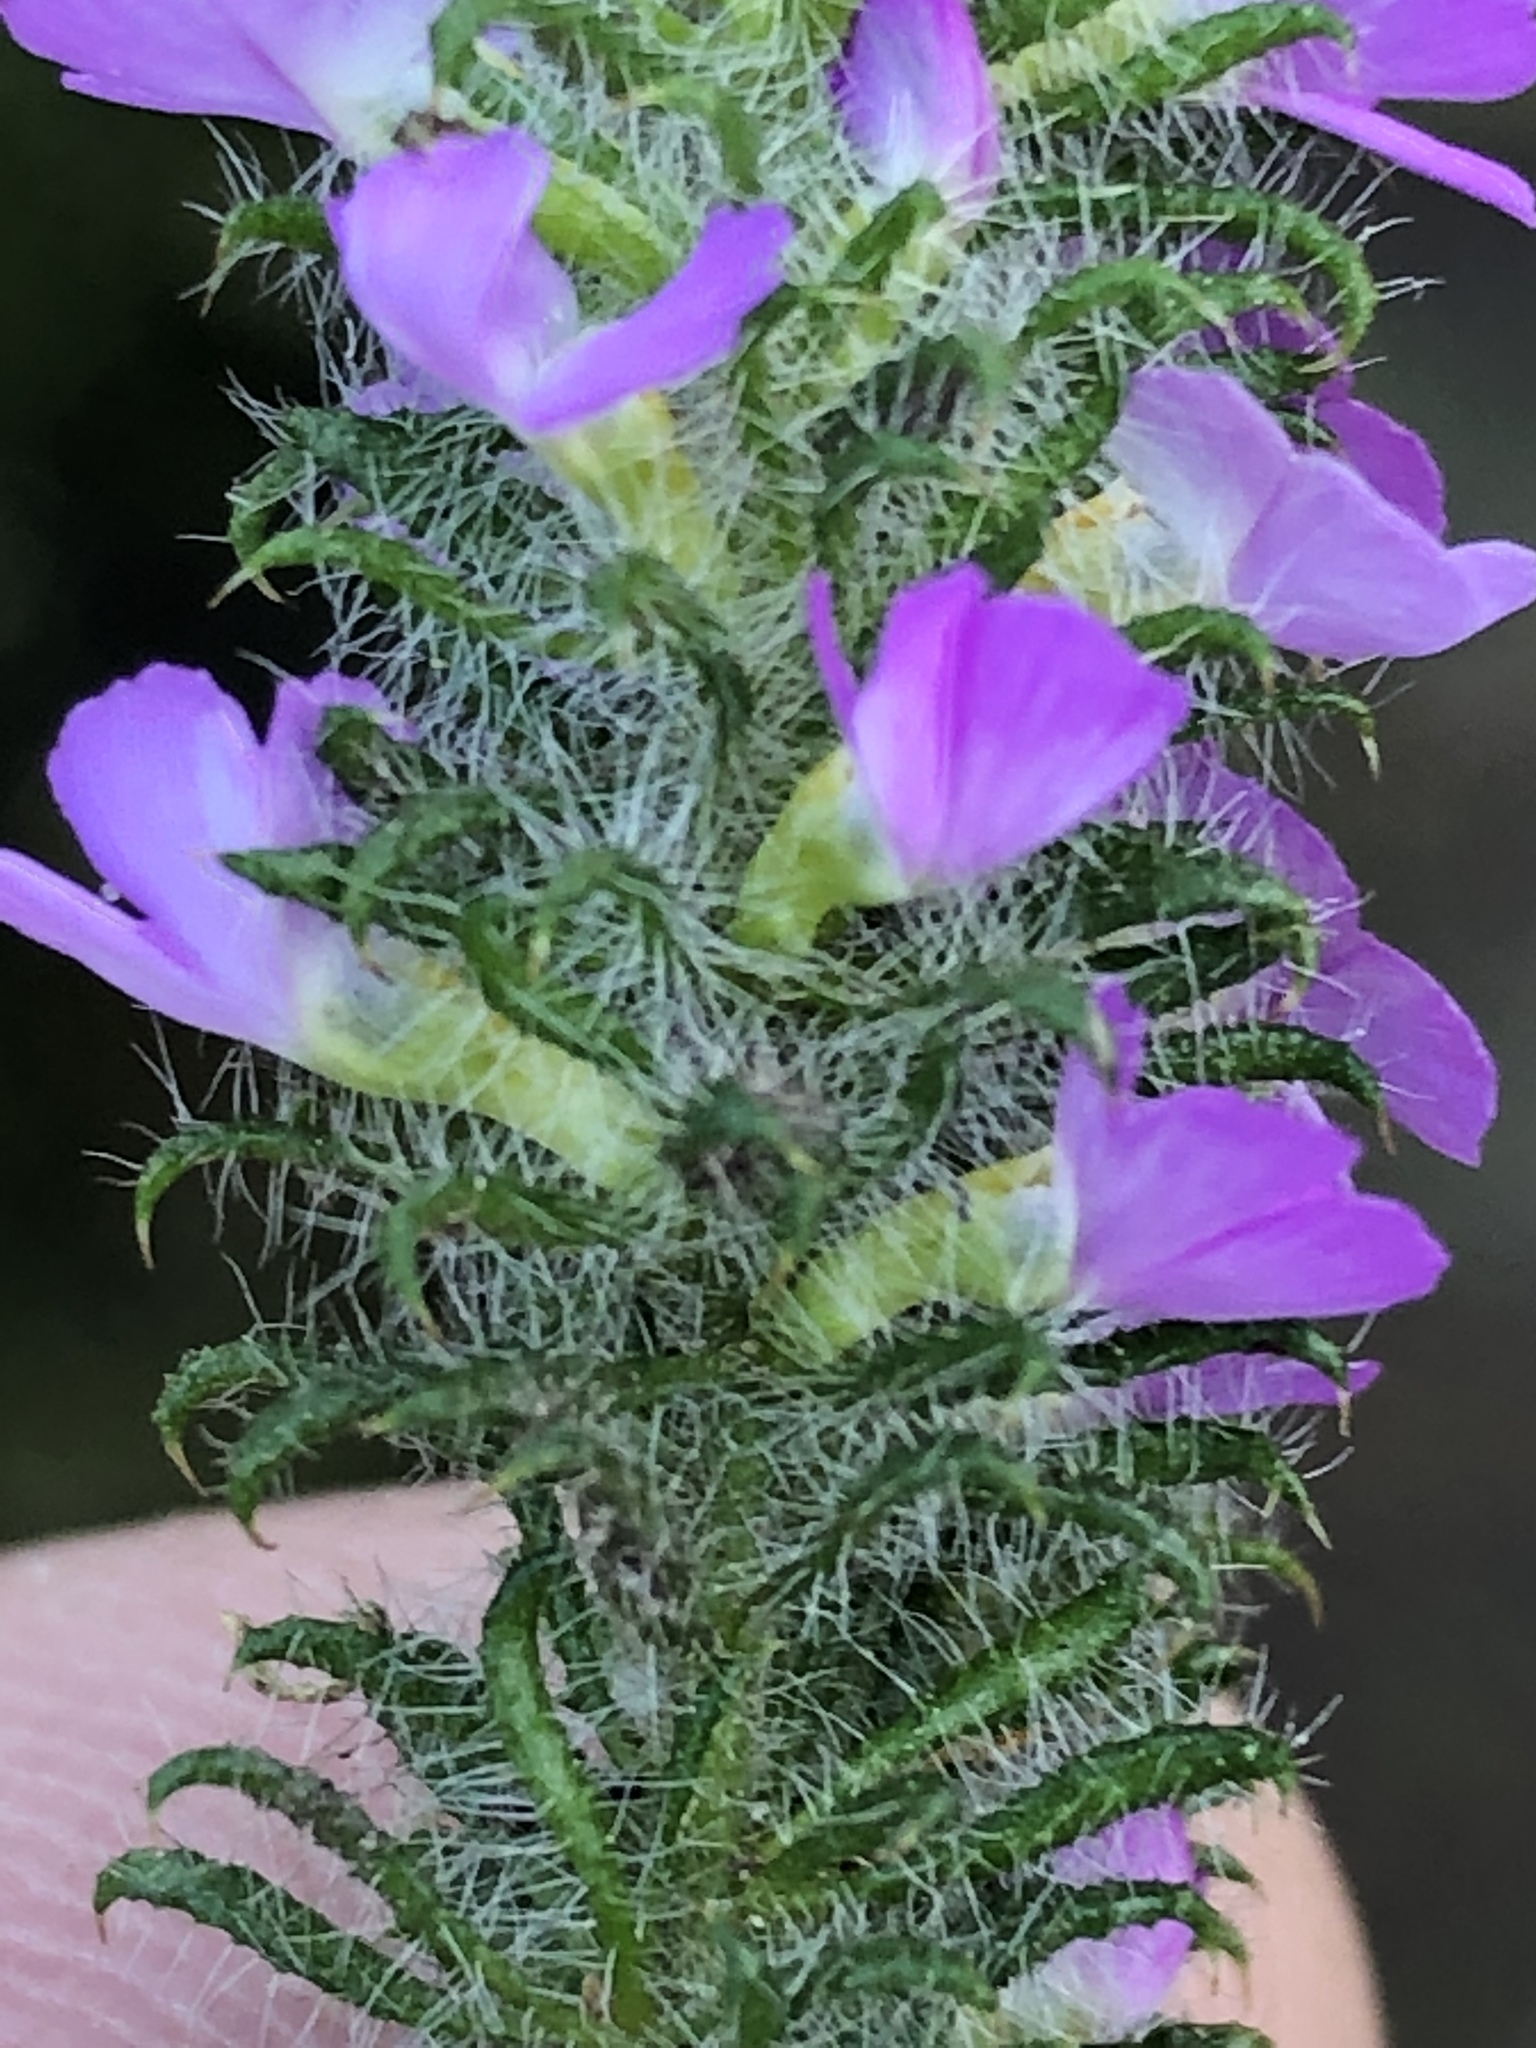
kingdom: Plantae
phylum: Tracheophyta
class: Magnoliopsida
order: Fabales
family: Polygalaceae
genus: Muraltia
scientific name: Muraltia ciliaris
